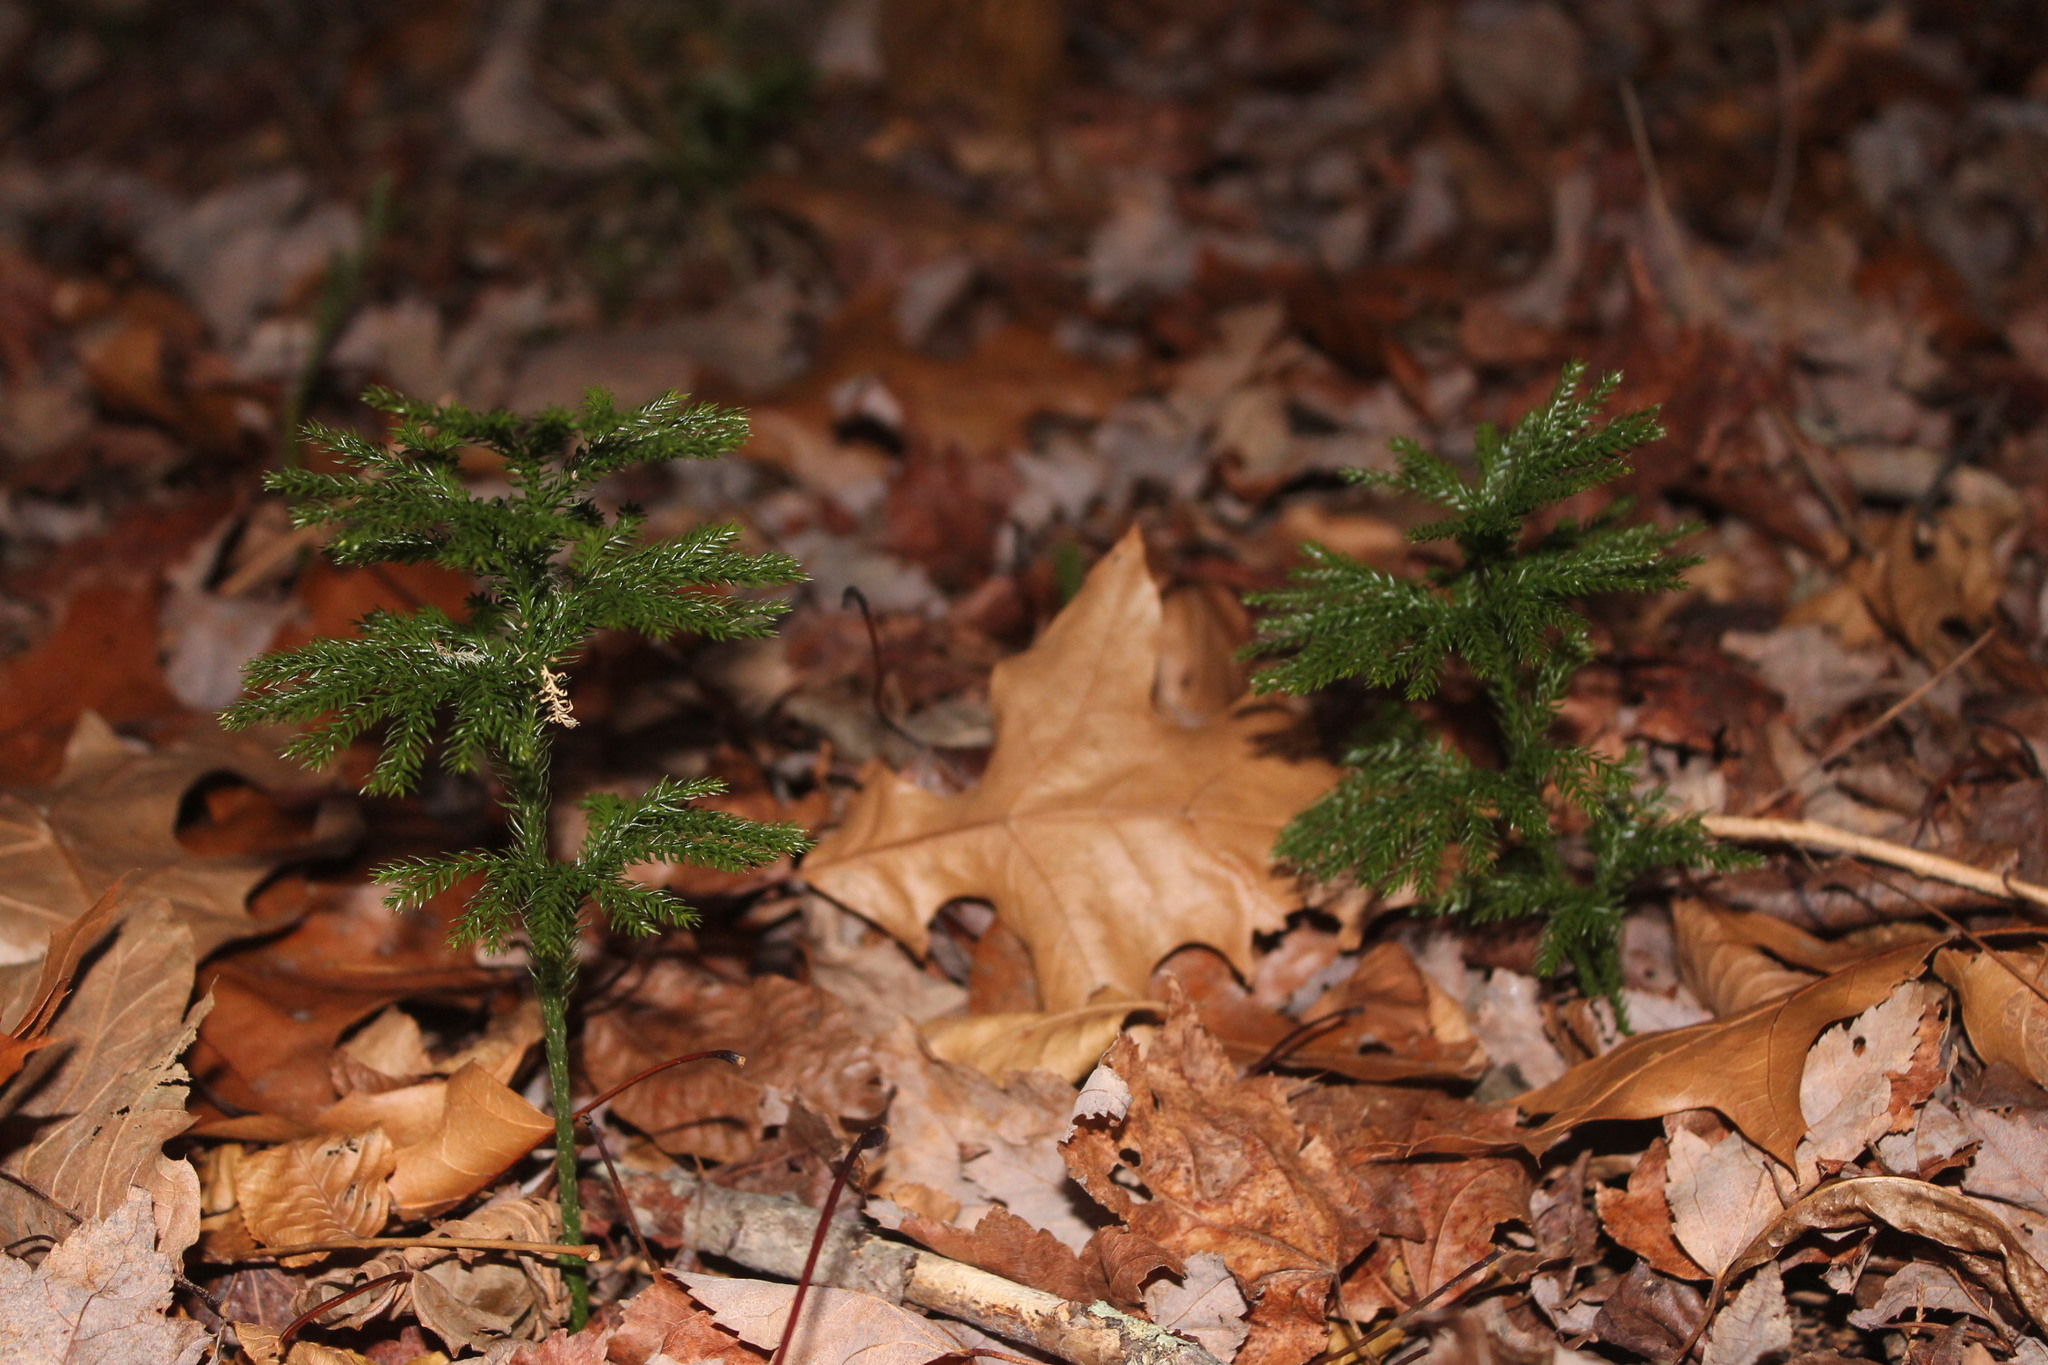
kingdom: Plantae
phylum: Tracheophyta
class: Lycopodiopsida
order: Lycopodiales
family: Lycopodiaceae
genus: Dendrolycopodium
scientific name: Dendrolycopodium obscurum
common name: Common ground-pine
